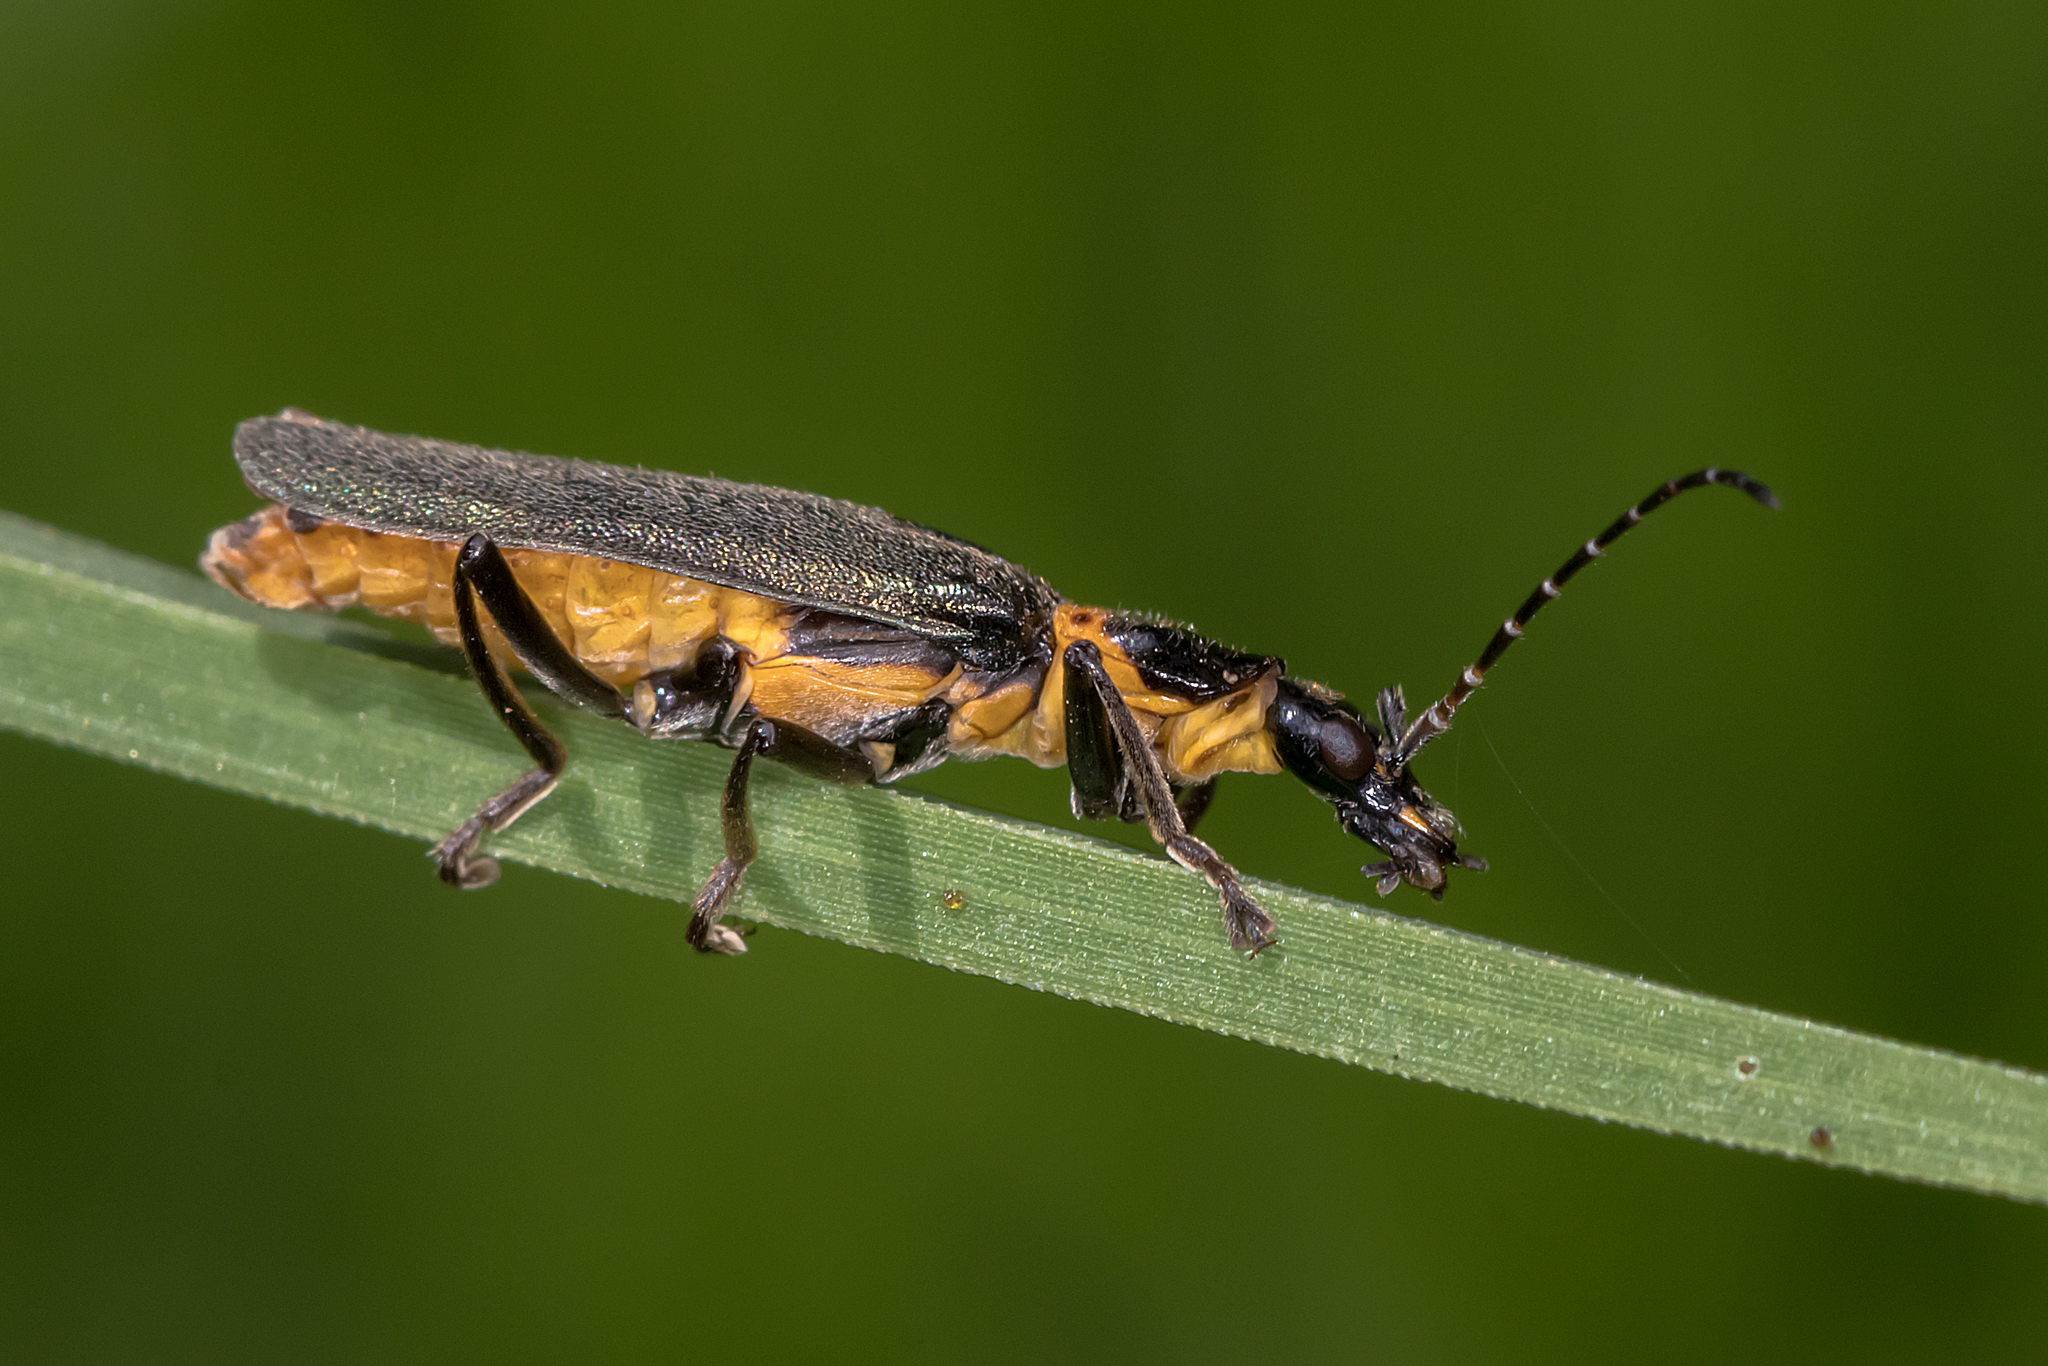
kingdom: Animalia
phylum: Arthropoda
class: Insecta
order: Coleoptera
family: Cantharidae
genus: Chauliognathus
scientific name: Chauliognathus
